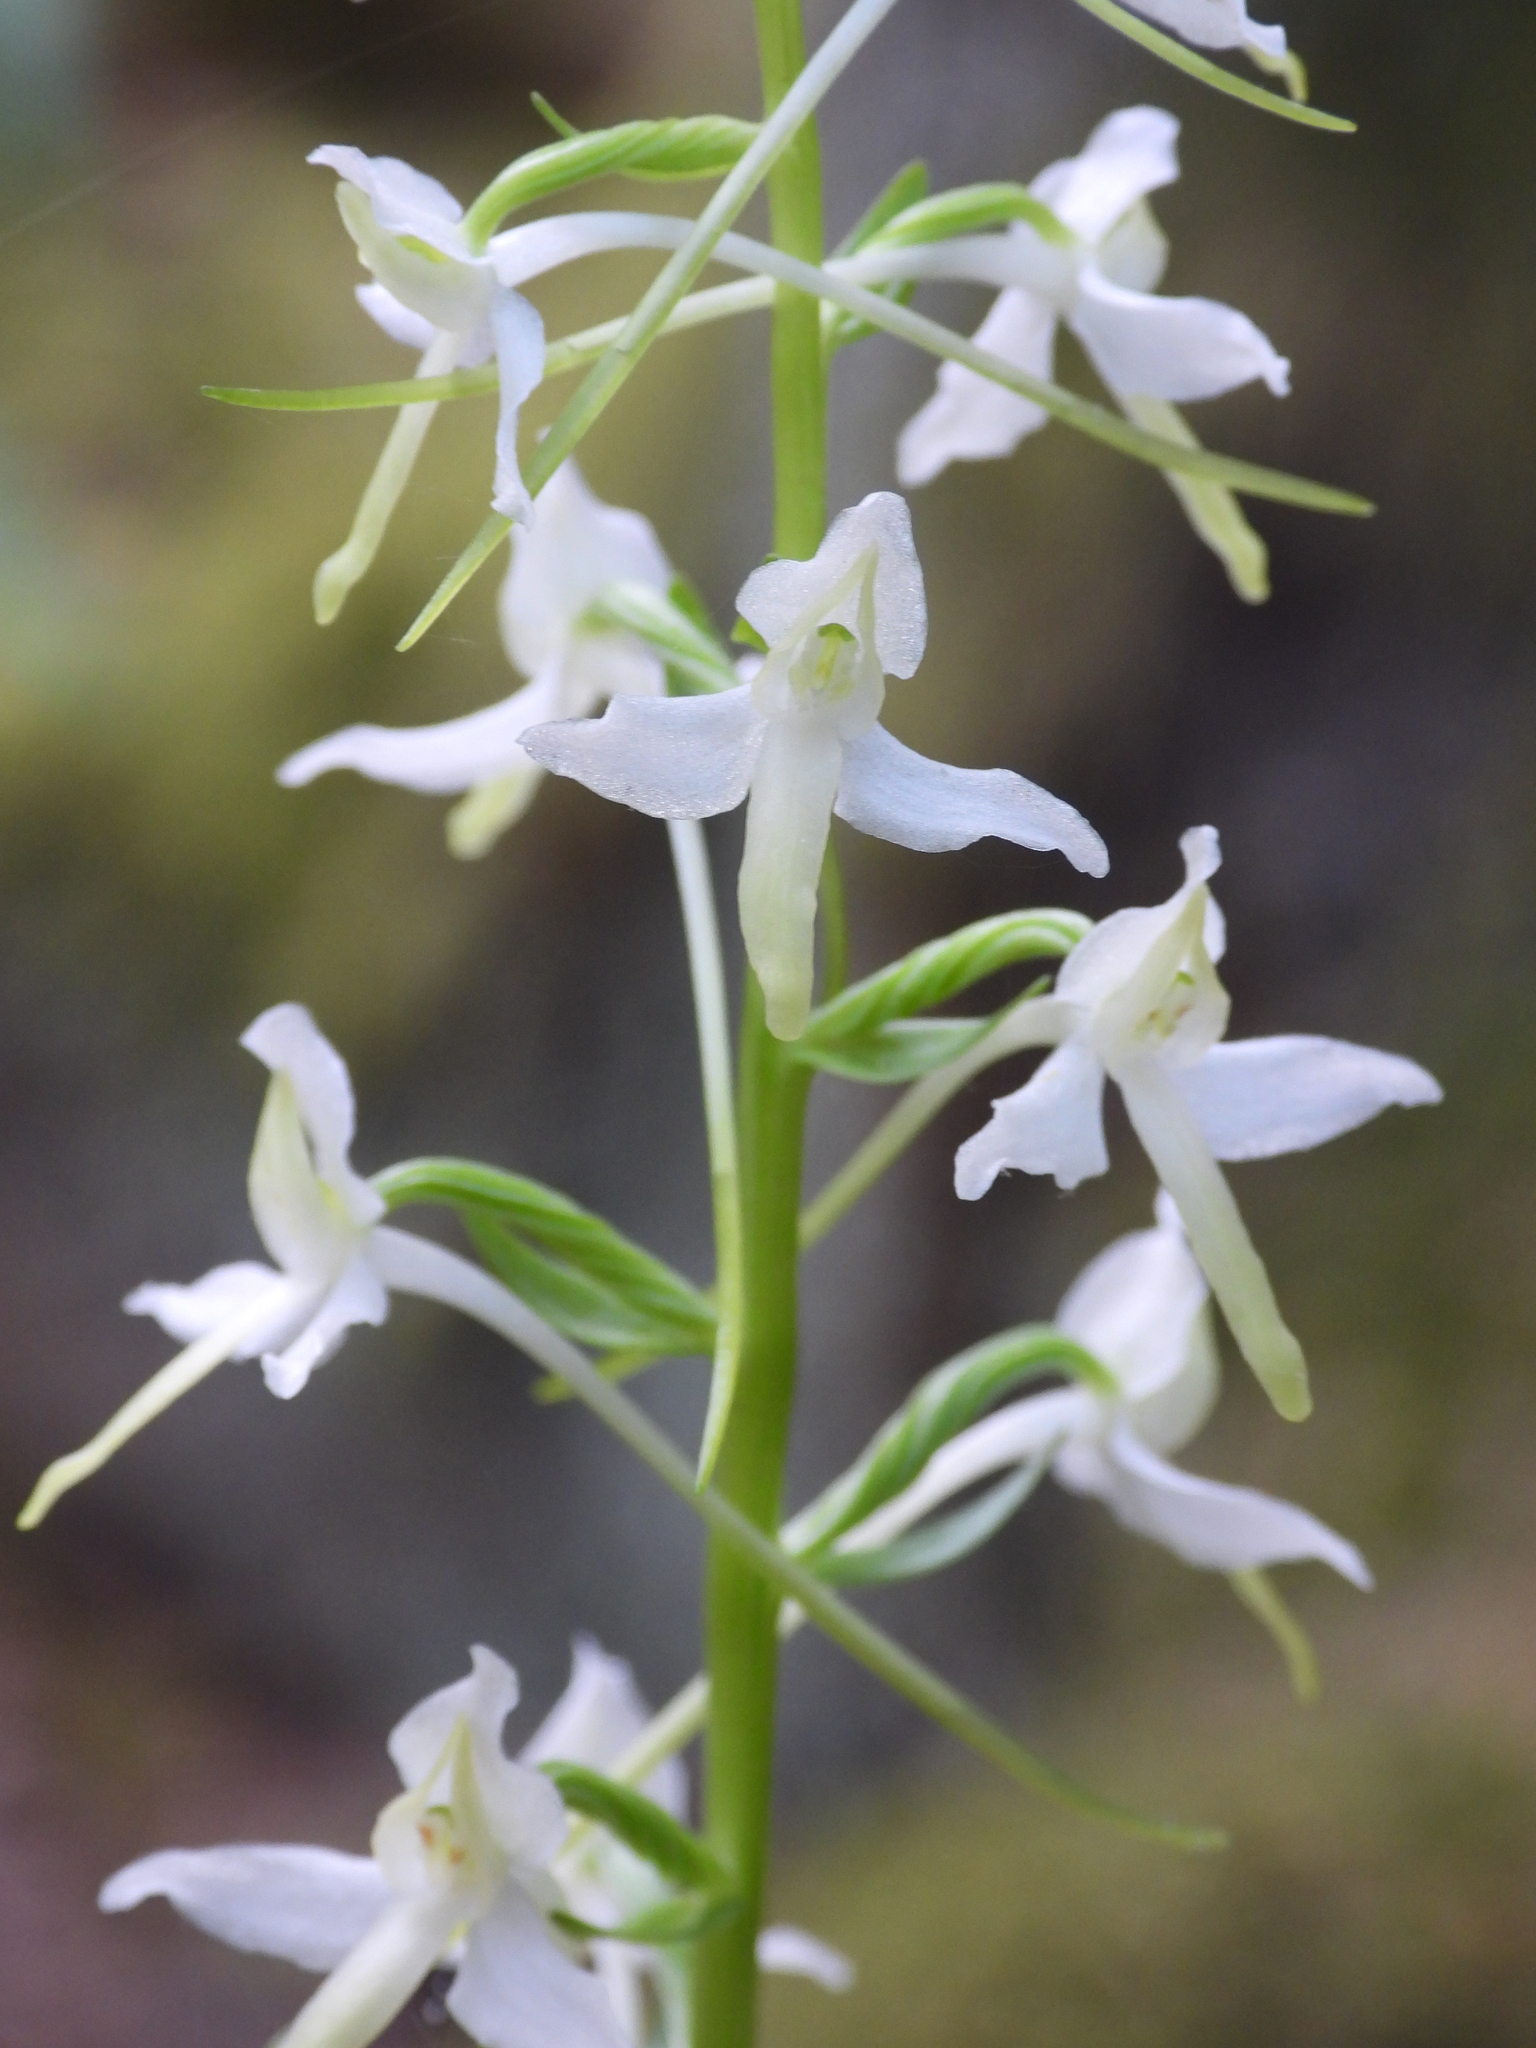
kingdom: Plantae
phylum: Tracheophyta
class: Liliopsida
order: Asparagales
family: Orchidaceae
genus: Platanthera
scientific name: Platanthera bifolia
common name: Lesser butterfly-orchid
